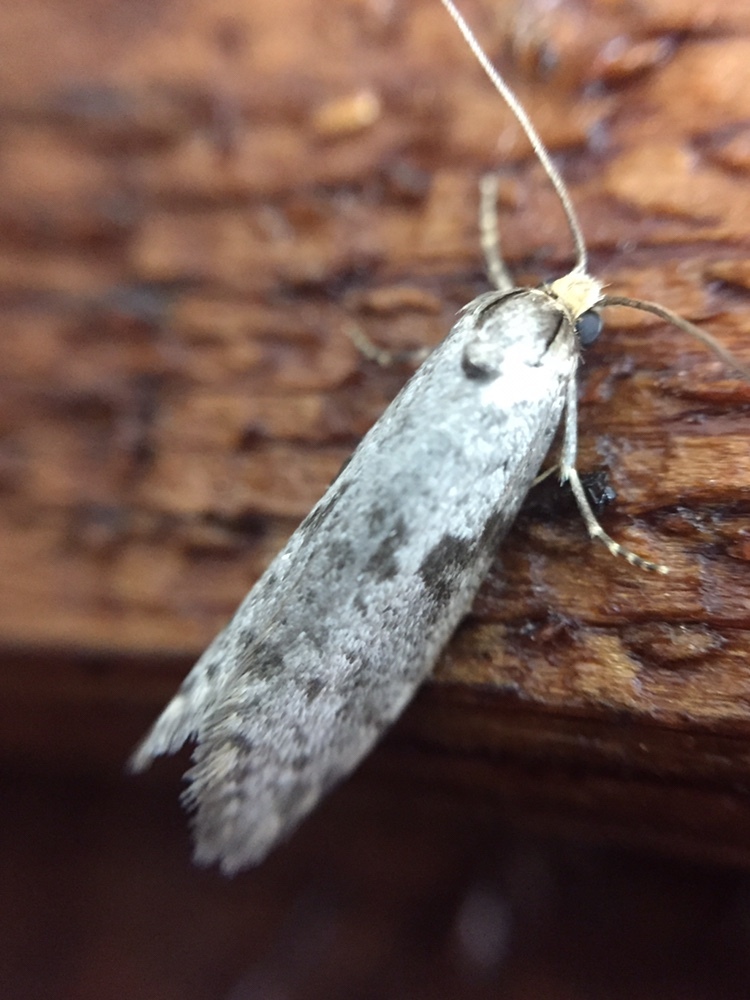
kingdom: Animalia
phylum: Arthropoda
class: Insecta
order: Lepidoptera
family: Psychidae
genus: Lepidoscia
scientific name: Lepidoscia protorna
